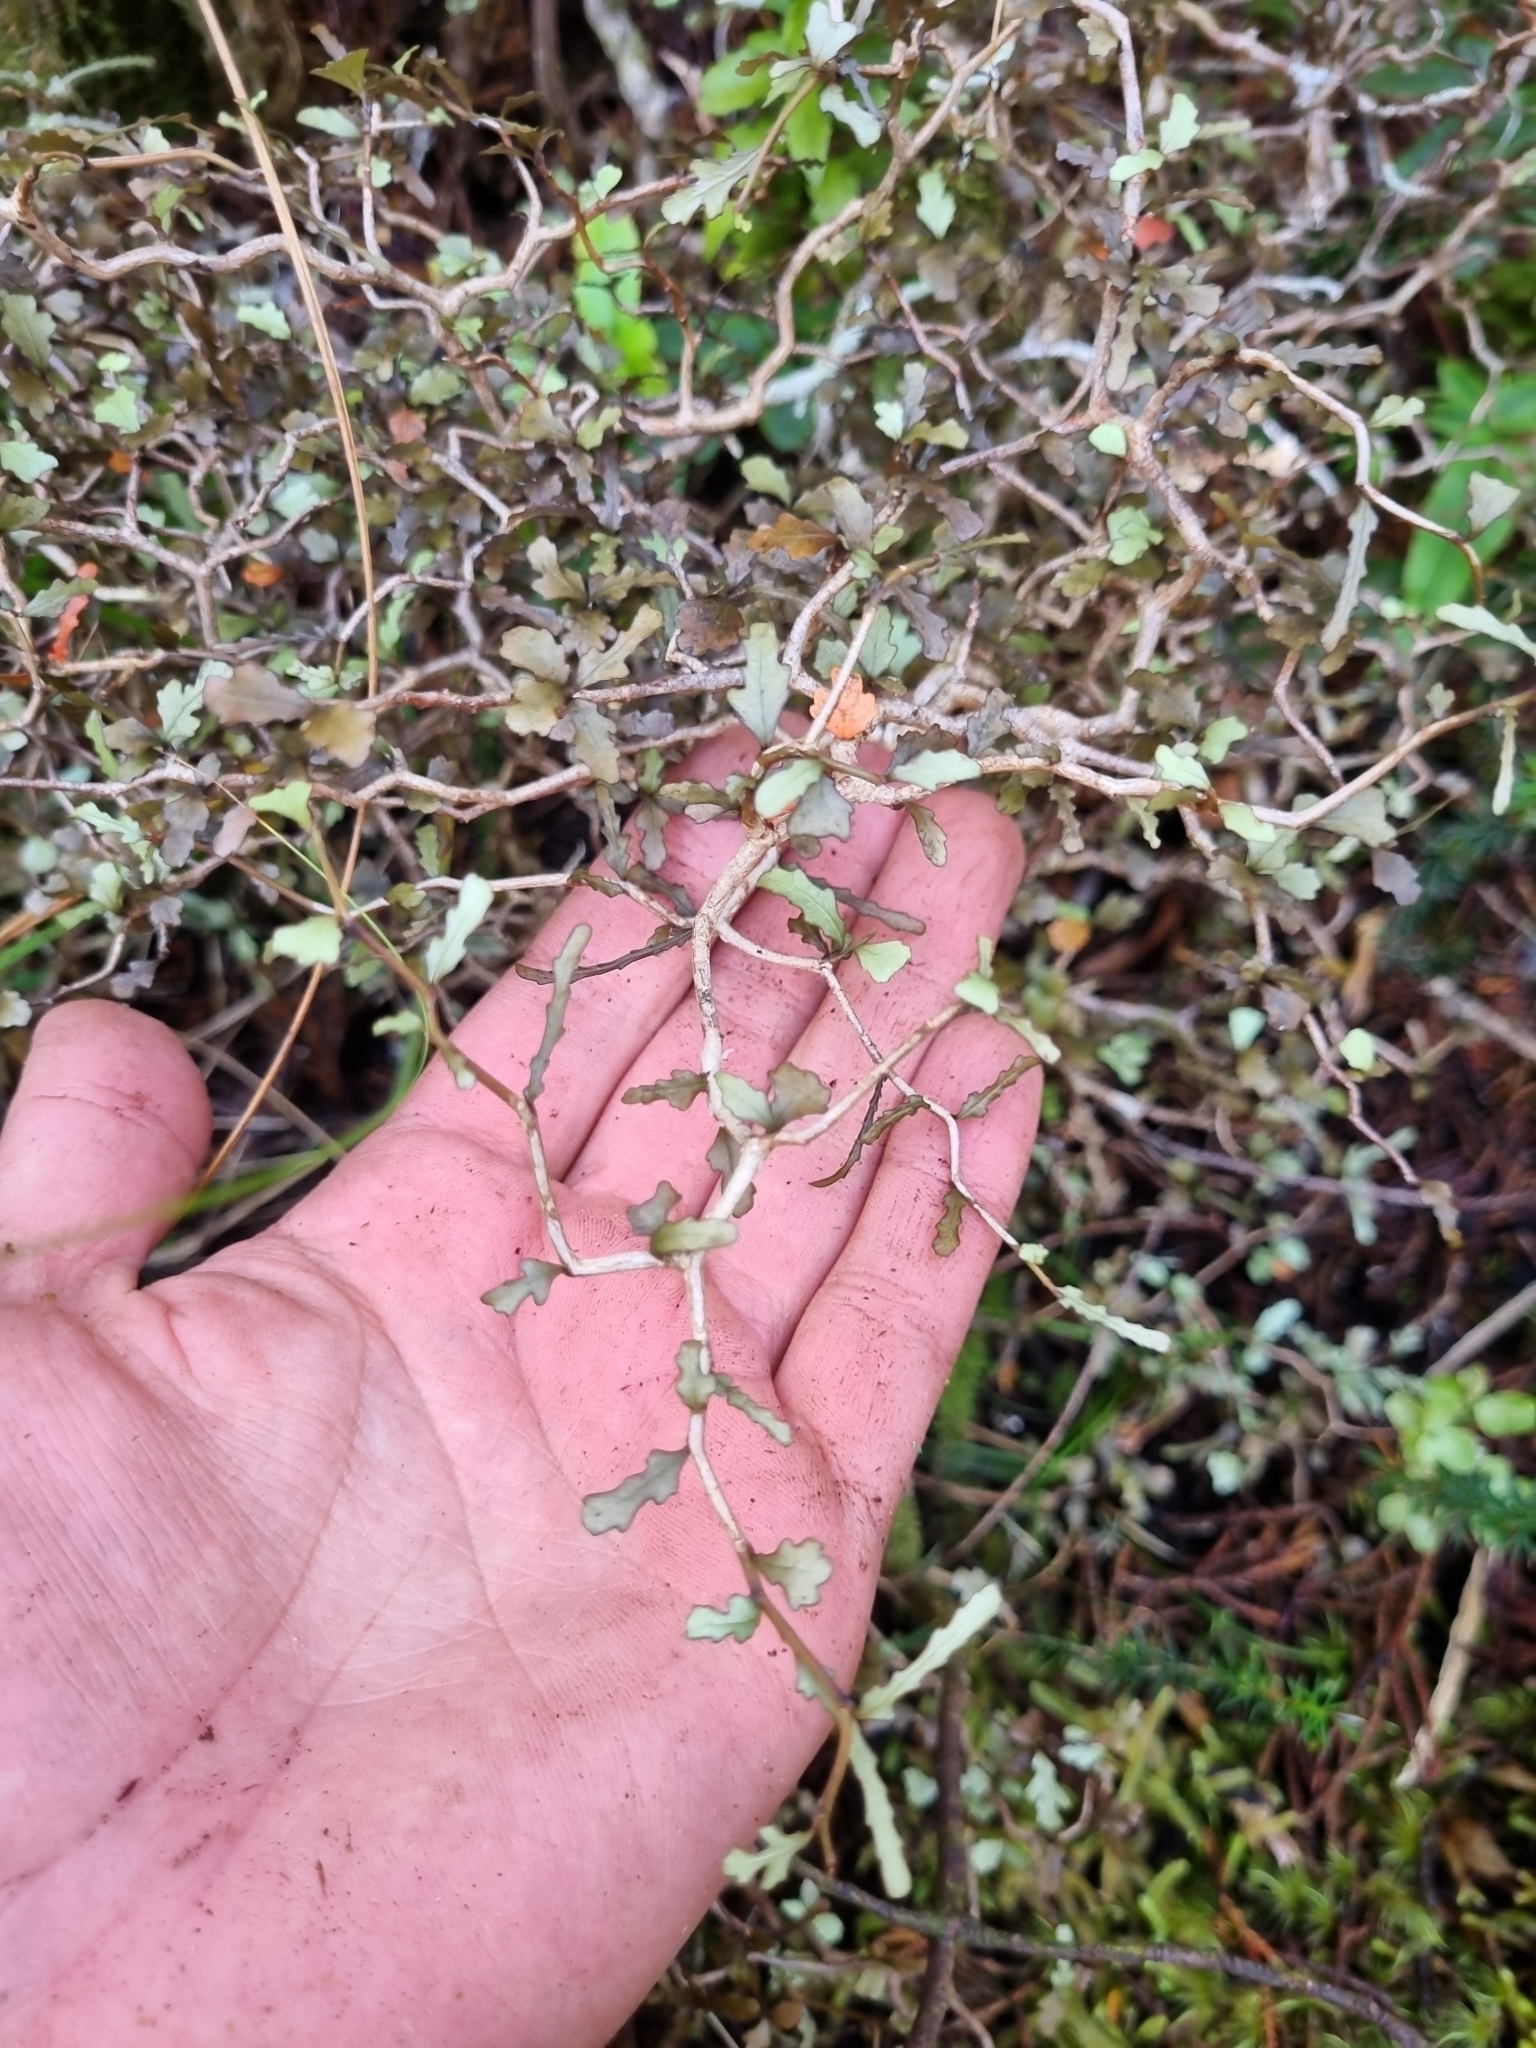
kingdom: Plantae
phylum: Tracheophyta
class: Magnoliopsida
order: Oxalidales
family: Elaeocarpaceae
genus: Elaeocarpus
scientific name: Elaeocarpus hookerianus
